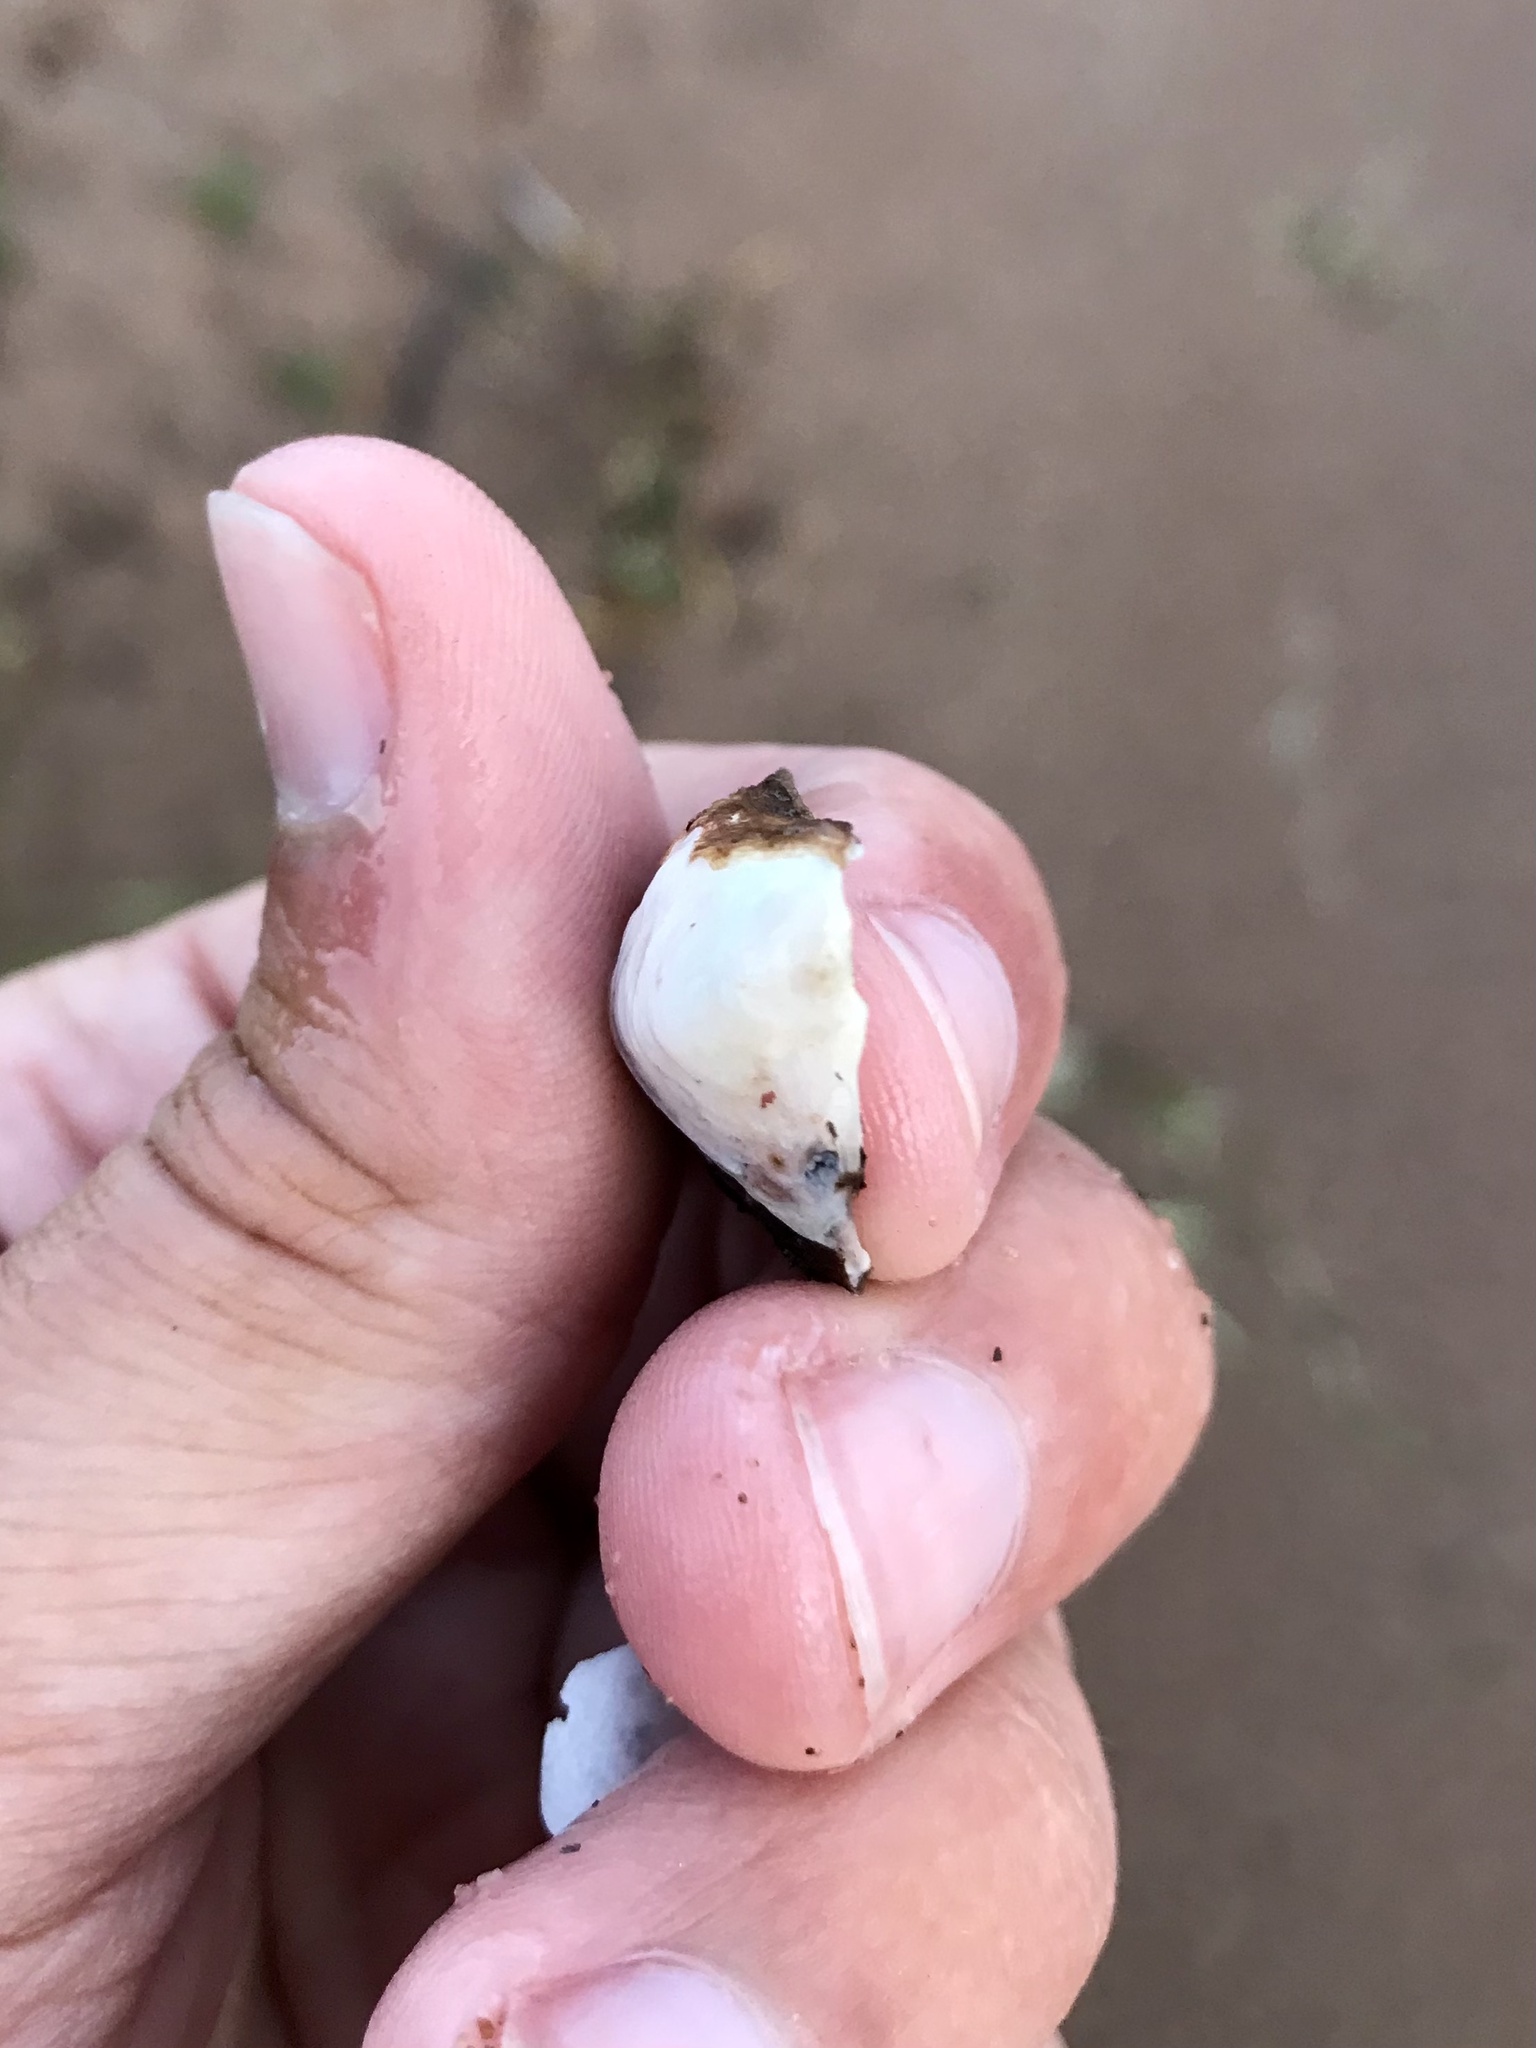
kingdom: Animalia
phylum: Mollusca
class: Bivalvia
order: Myida
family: Dreissenidae
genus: Dreissena
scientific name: Dreissena bugensis
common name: Quagga mussel
